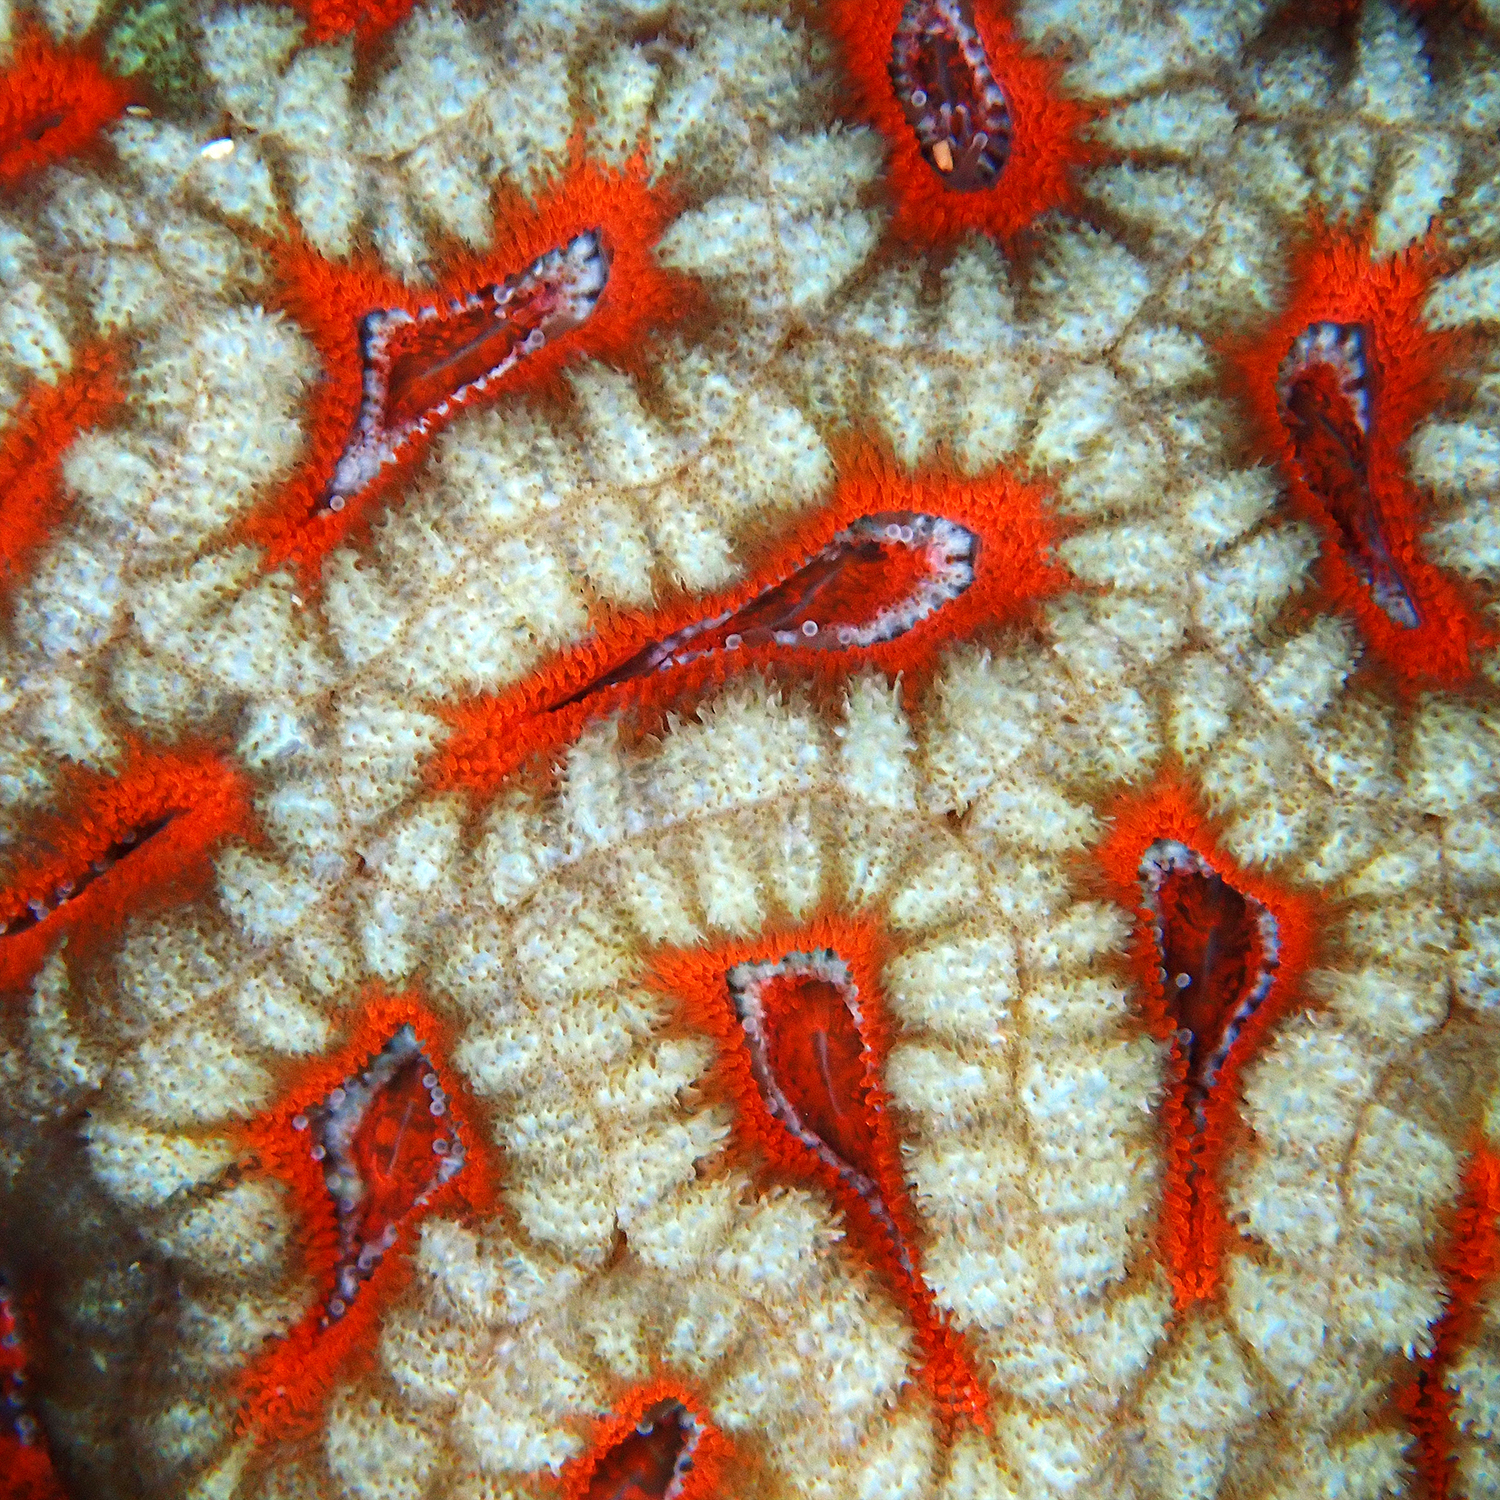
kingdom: Animalia
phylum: Cnidaria
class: Anthozoa
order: Scleractinia
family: Lobophylliidae
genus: Micromussa
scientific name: Micromussa lordhowensis
